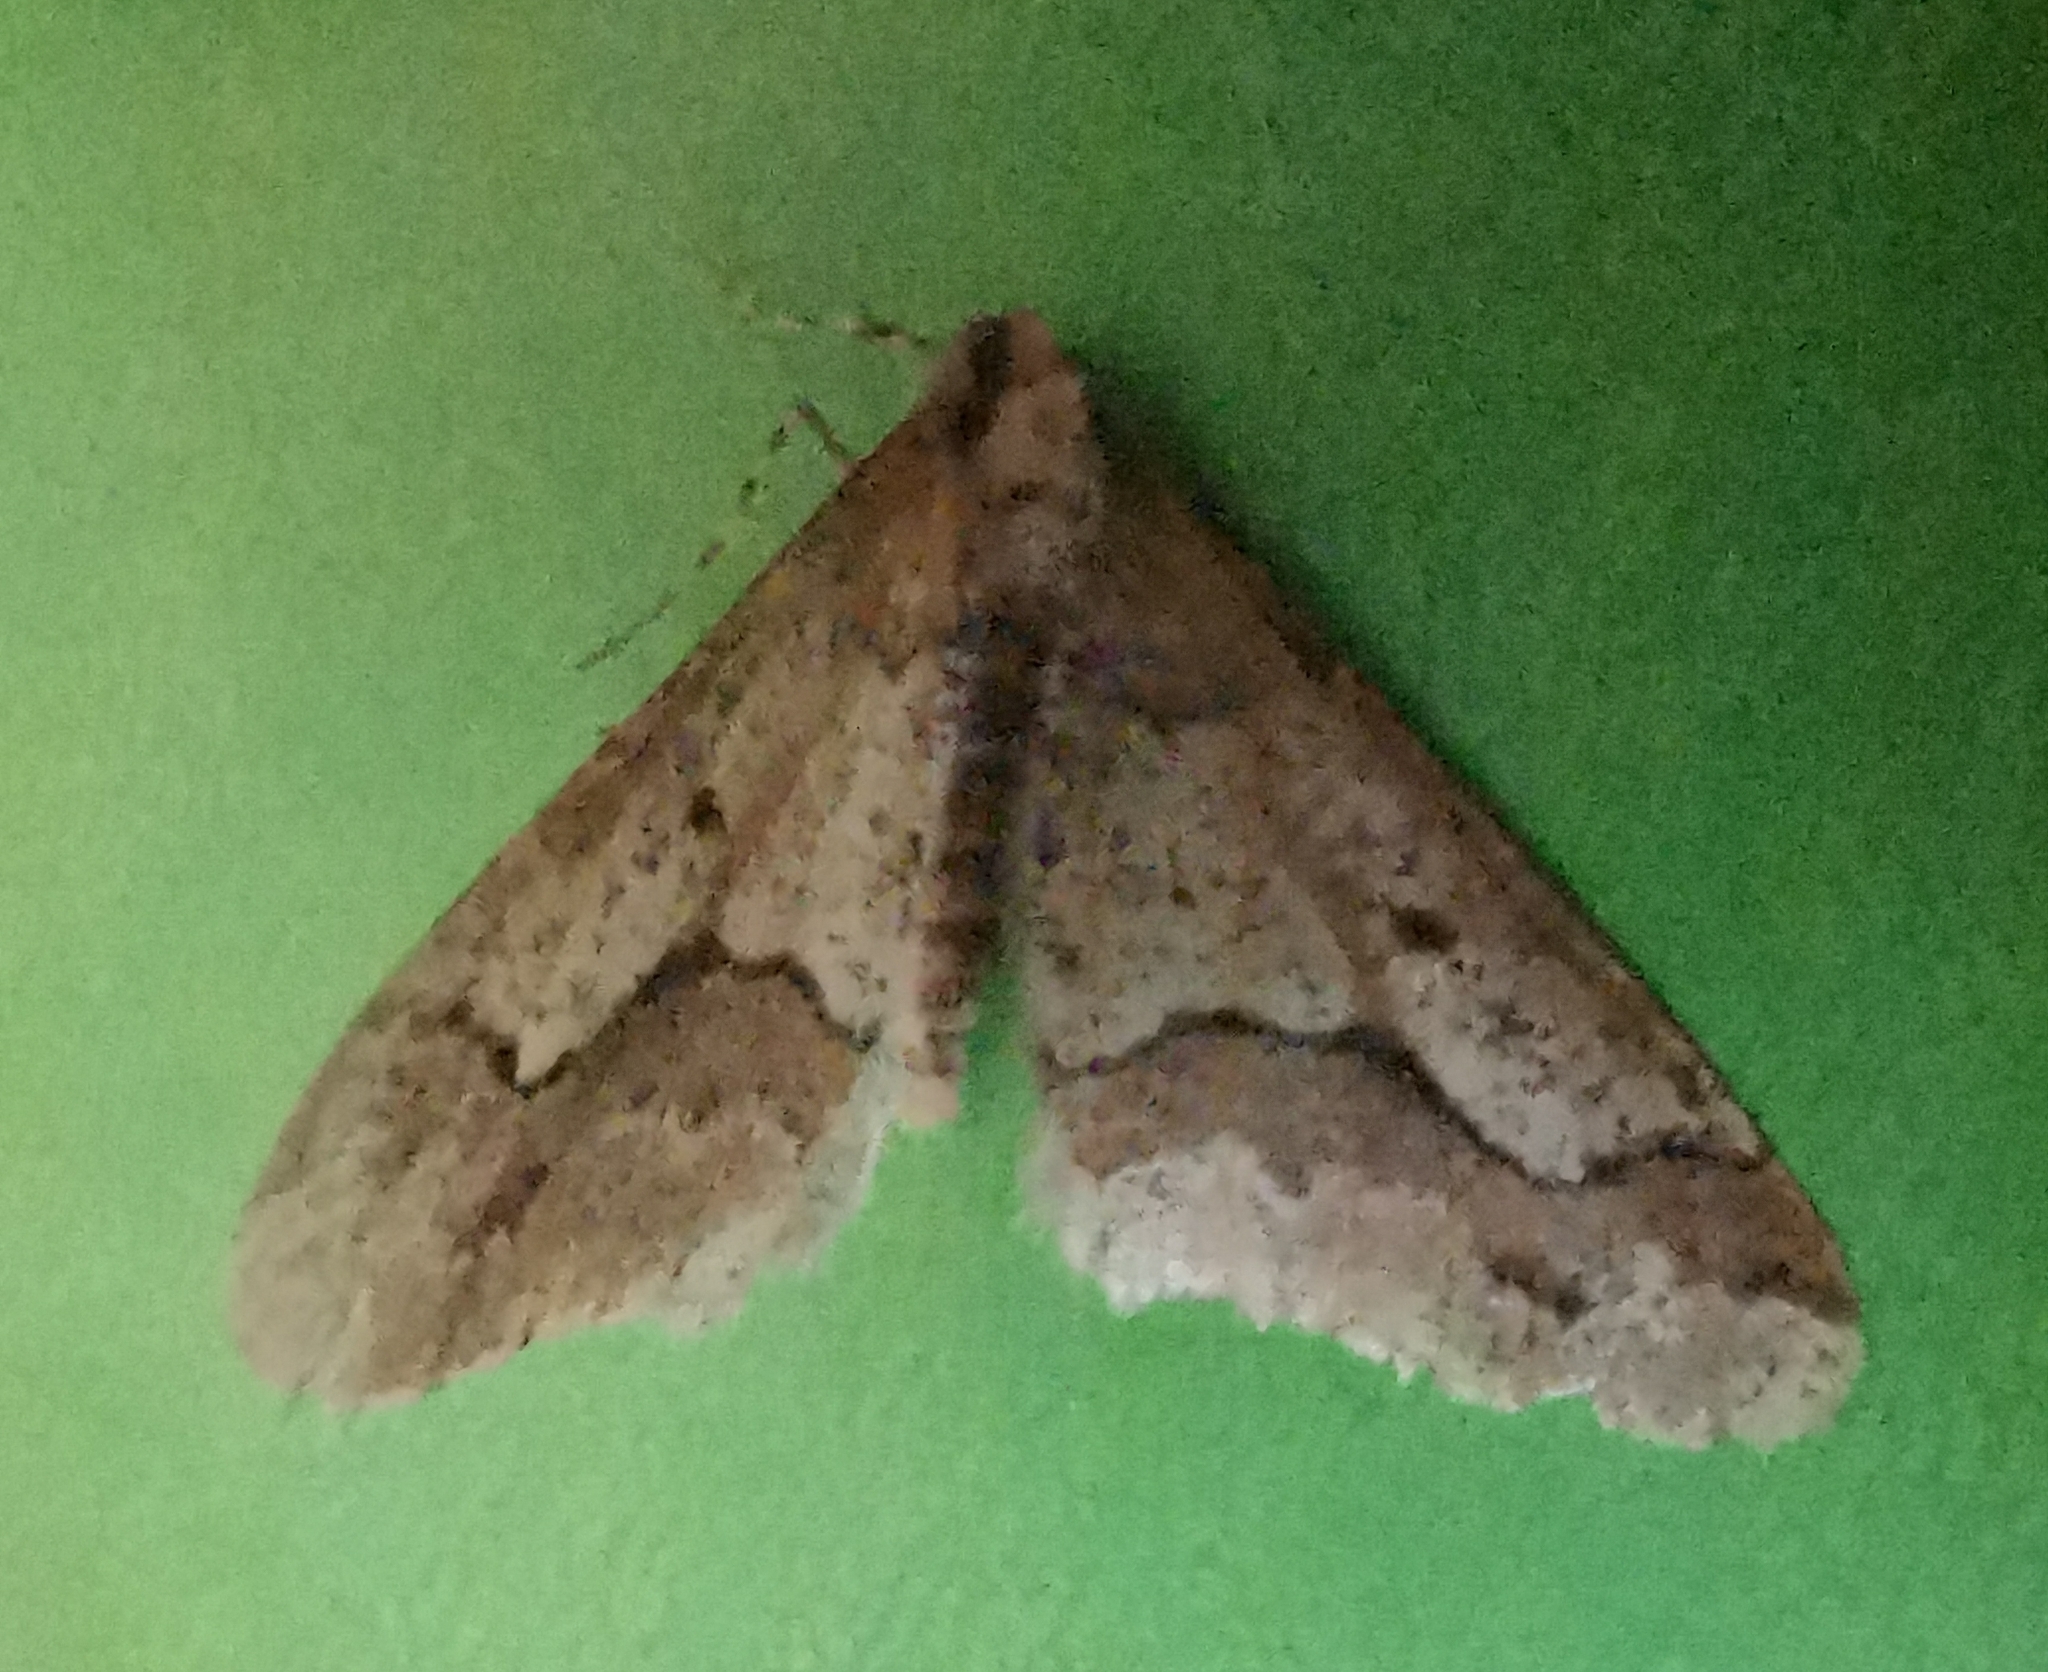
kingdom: Animalia
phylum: Arthropoda
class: Insecta
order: Lepidoptera
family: Geometridae
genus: Erannis
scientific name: Erannis defoliaria
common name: Mottled umber
